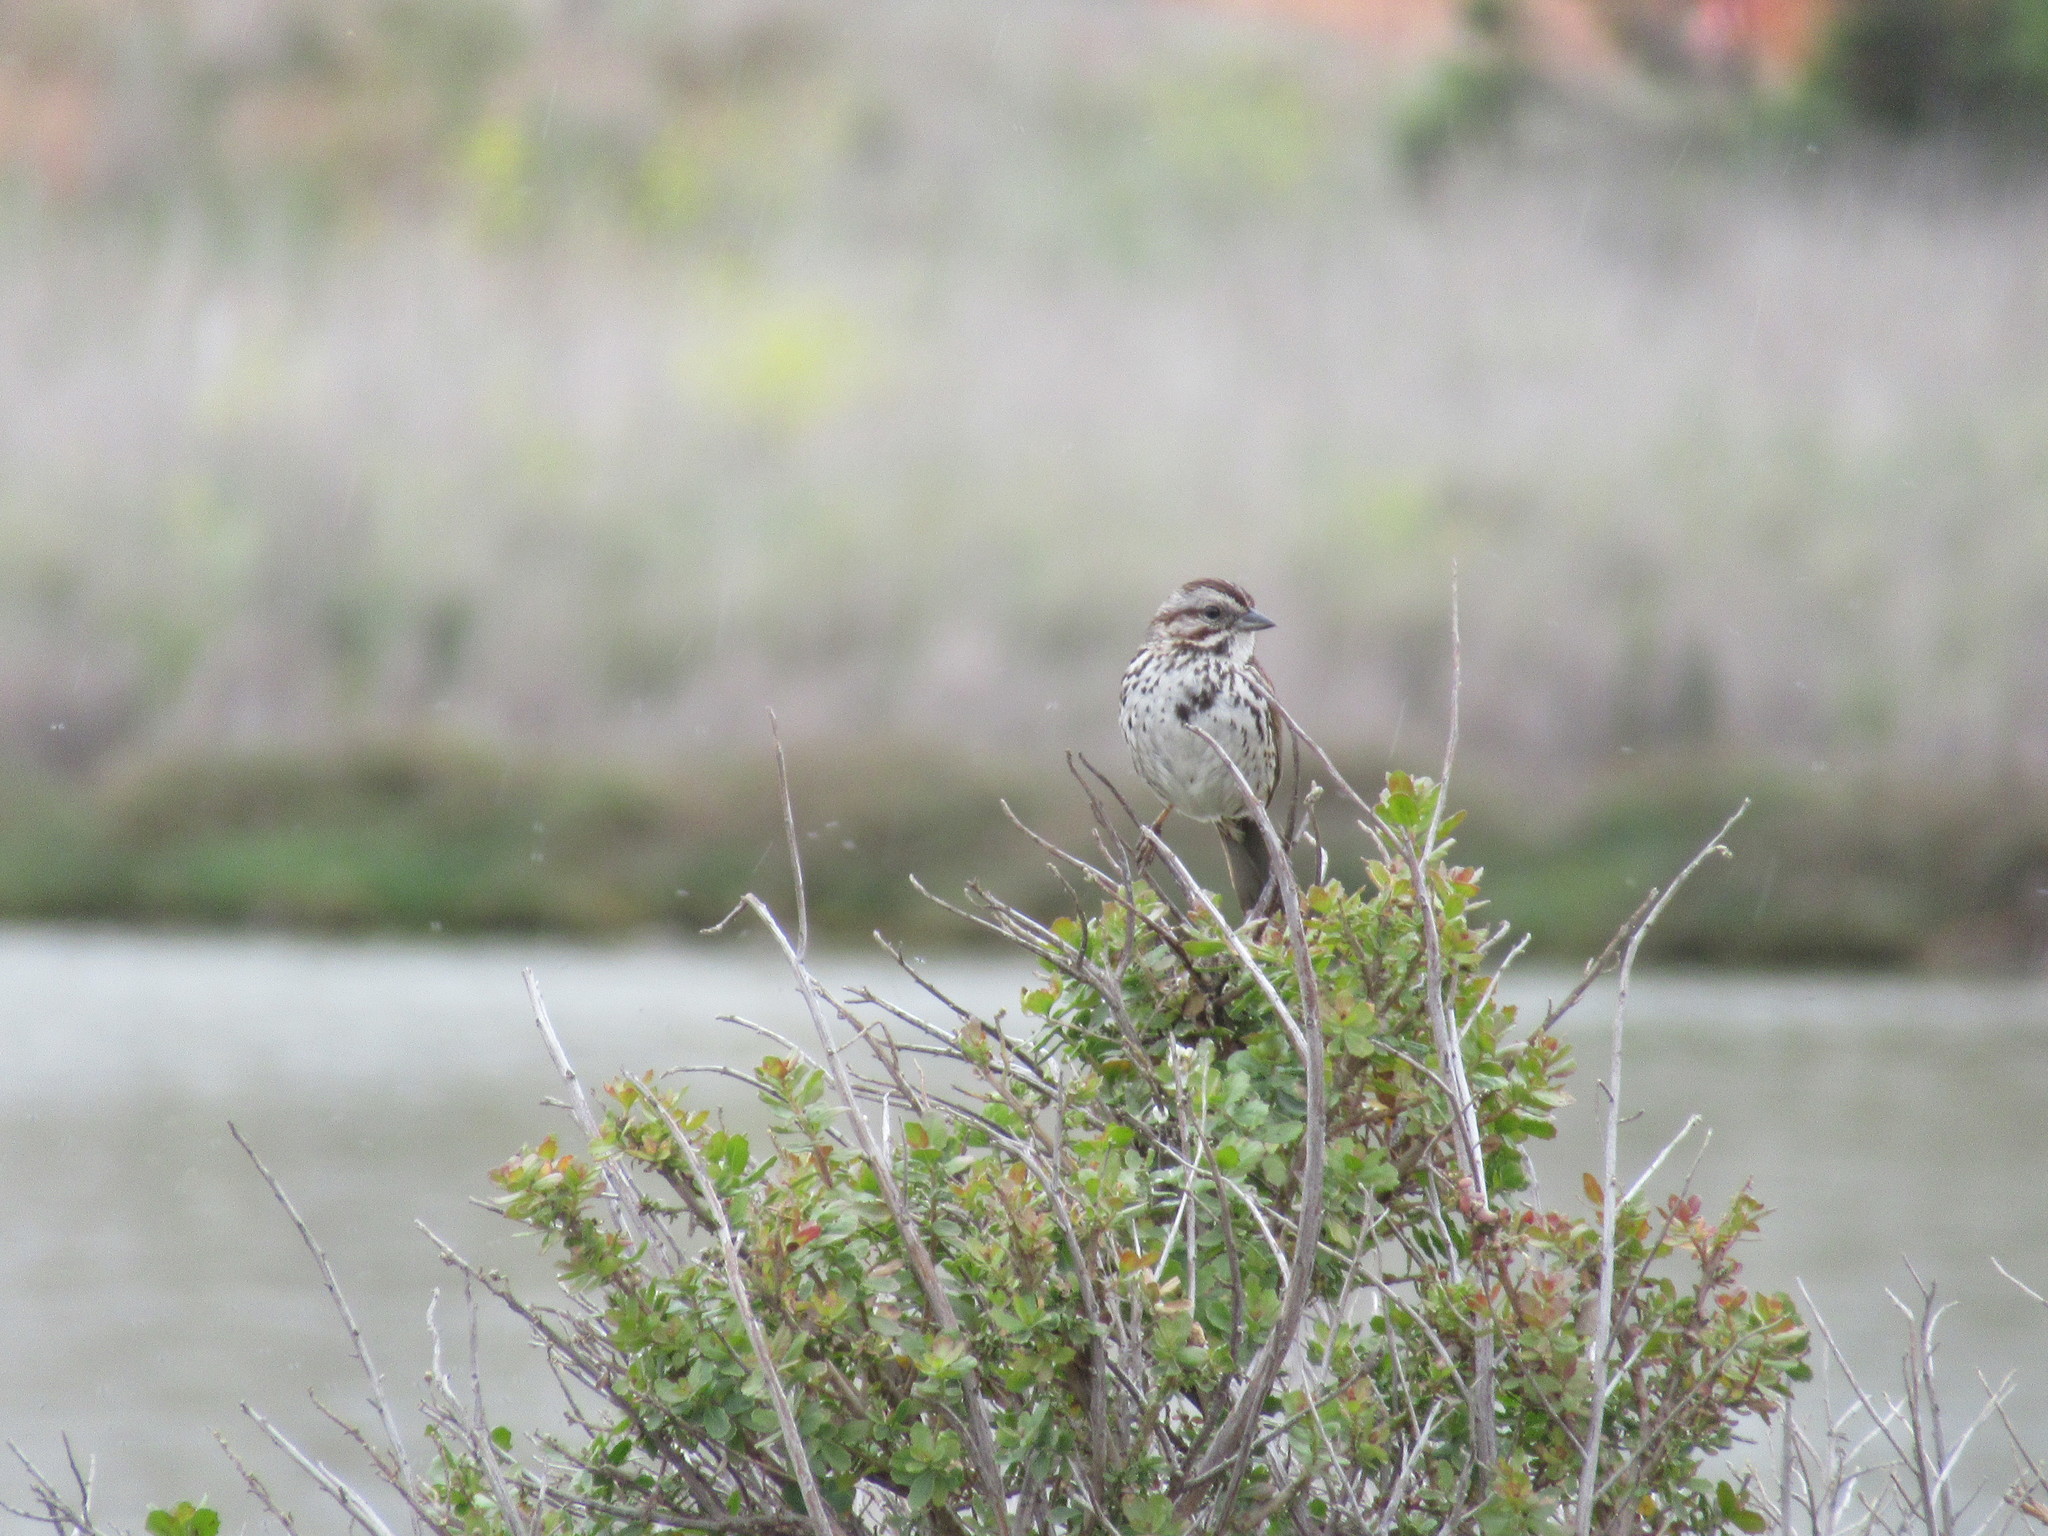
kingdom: Animalia
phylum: Chordata
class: Aves
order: Passeriformes
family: Passerellidae
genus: Melospiza
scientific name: Melospiza melodia
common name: Song sparrow
